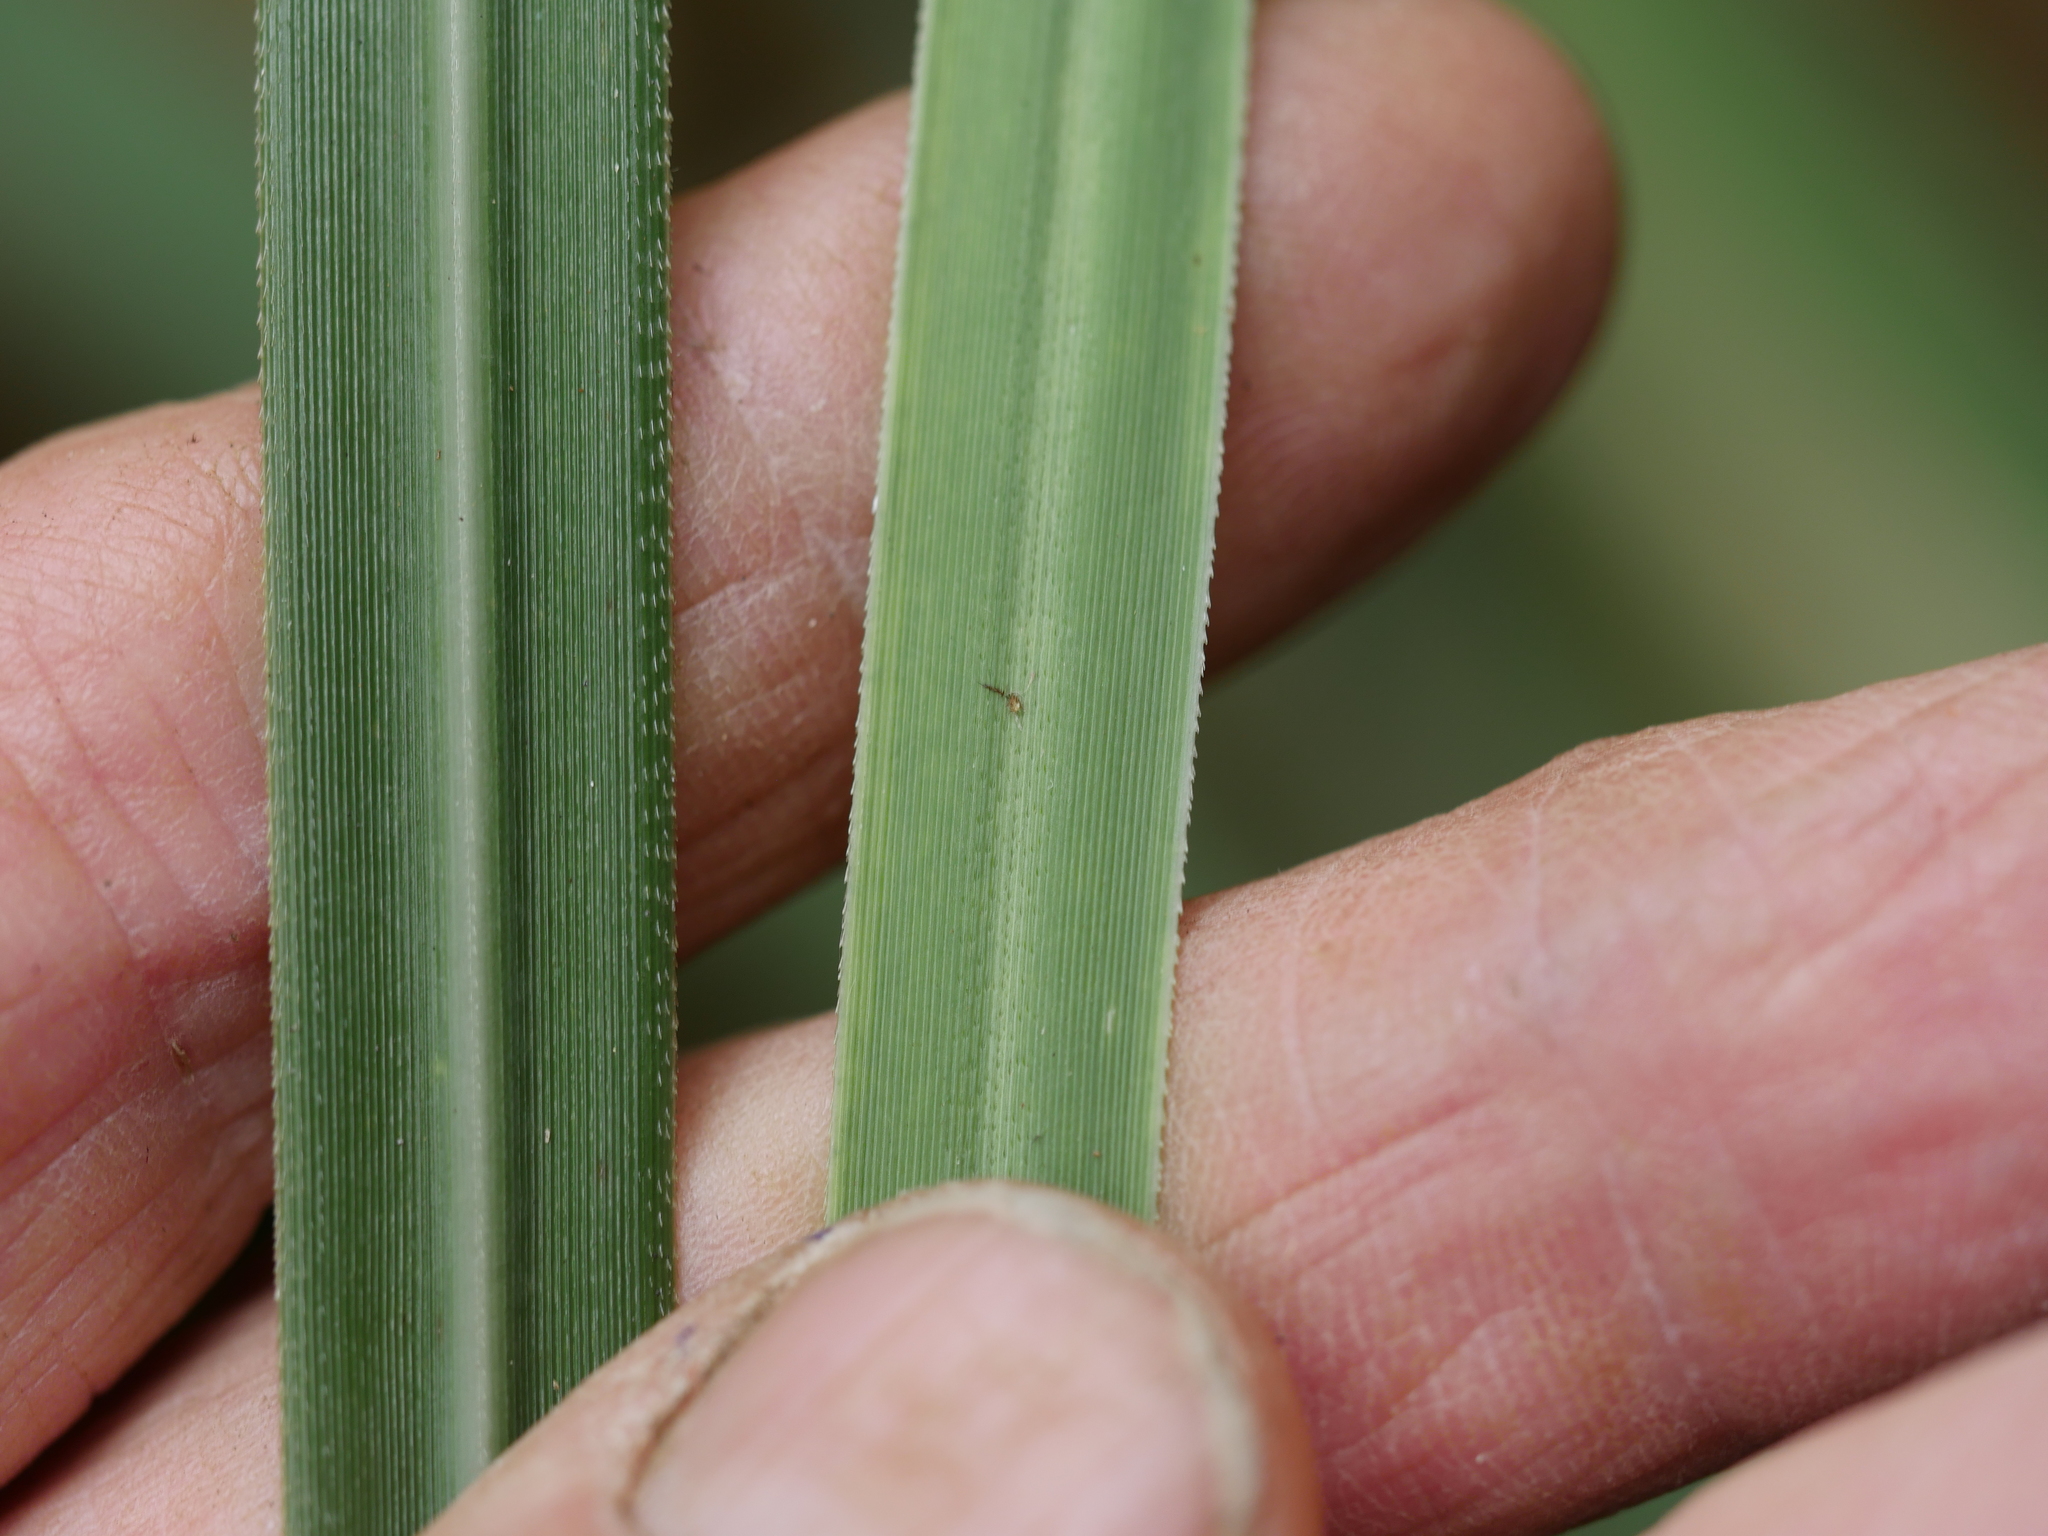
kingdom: Plantae
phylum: Tracheophyta
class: Liliopsida
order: Poales
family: Poaceae
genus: Cortaderia
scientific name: Cortaderia jubata
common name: Purple pampas grass
